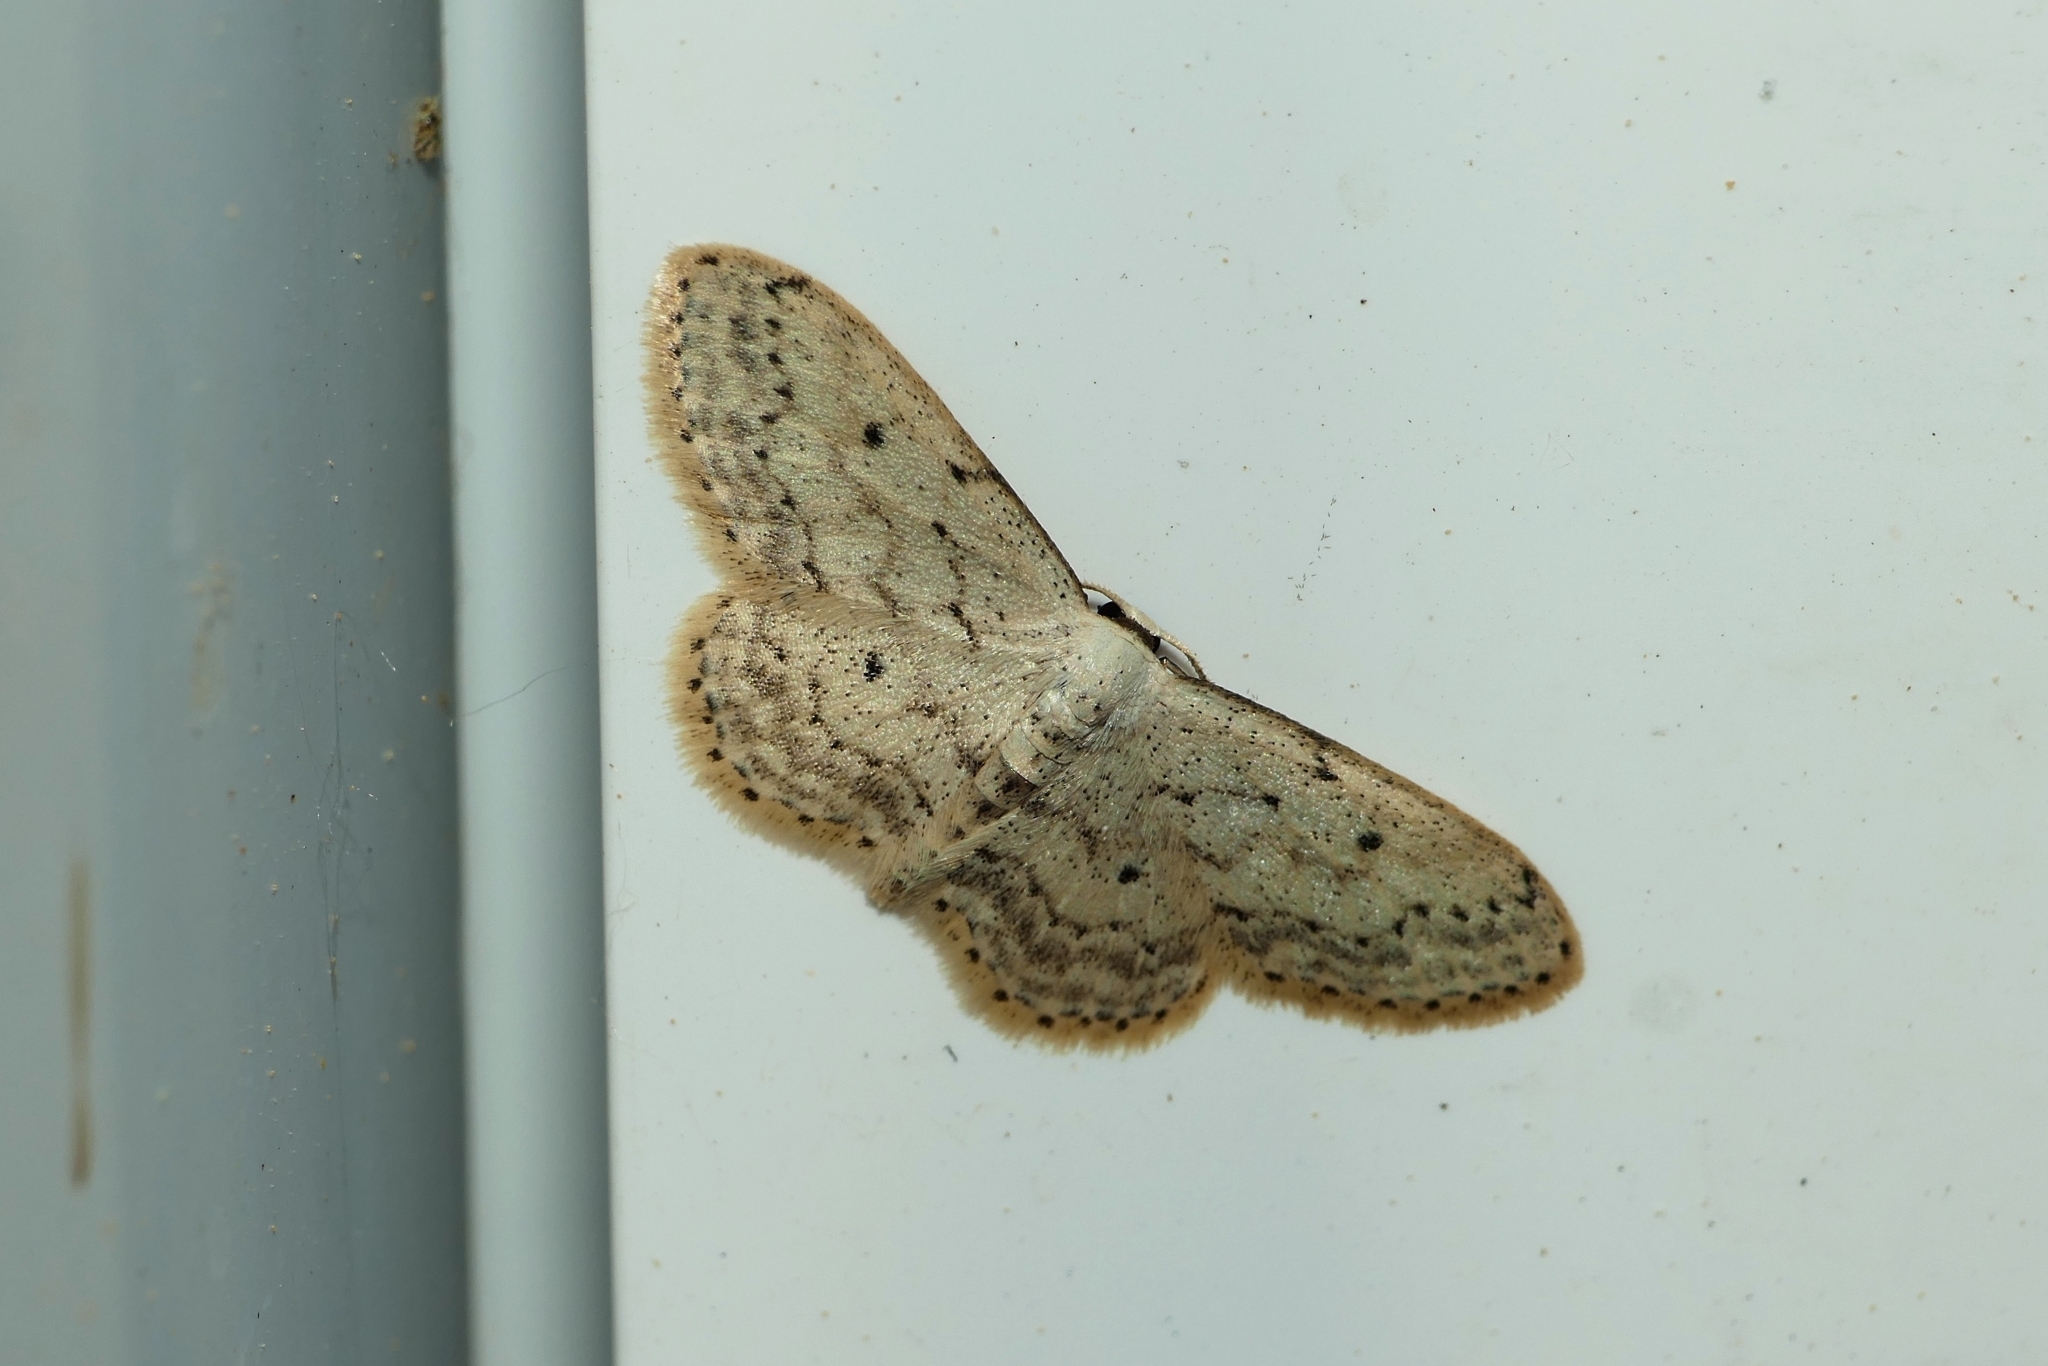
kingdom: Animalia
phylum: Arthropoda
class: Insecta
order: Lepidoptera
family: Geometridae
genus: Idaea
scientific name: Idaea seriata
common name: Small dusty wave
